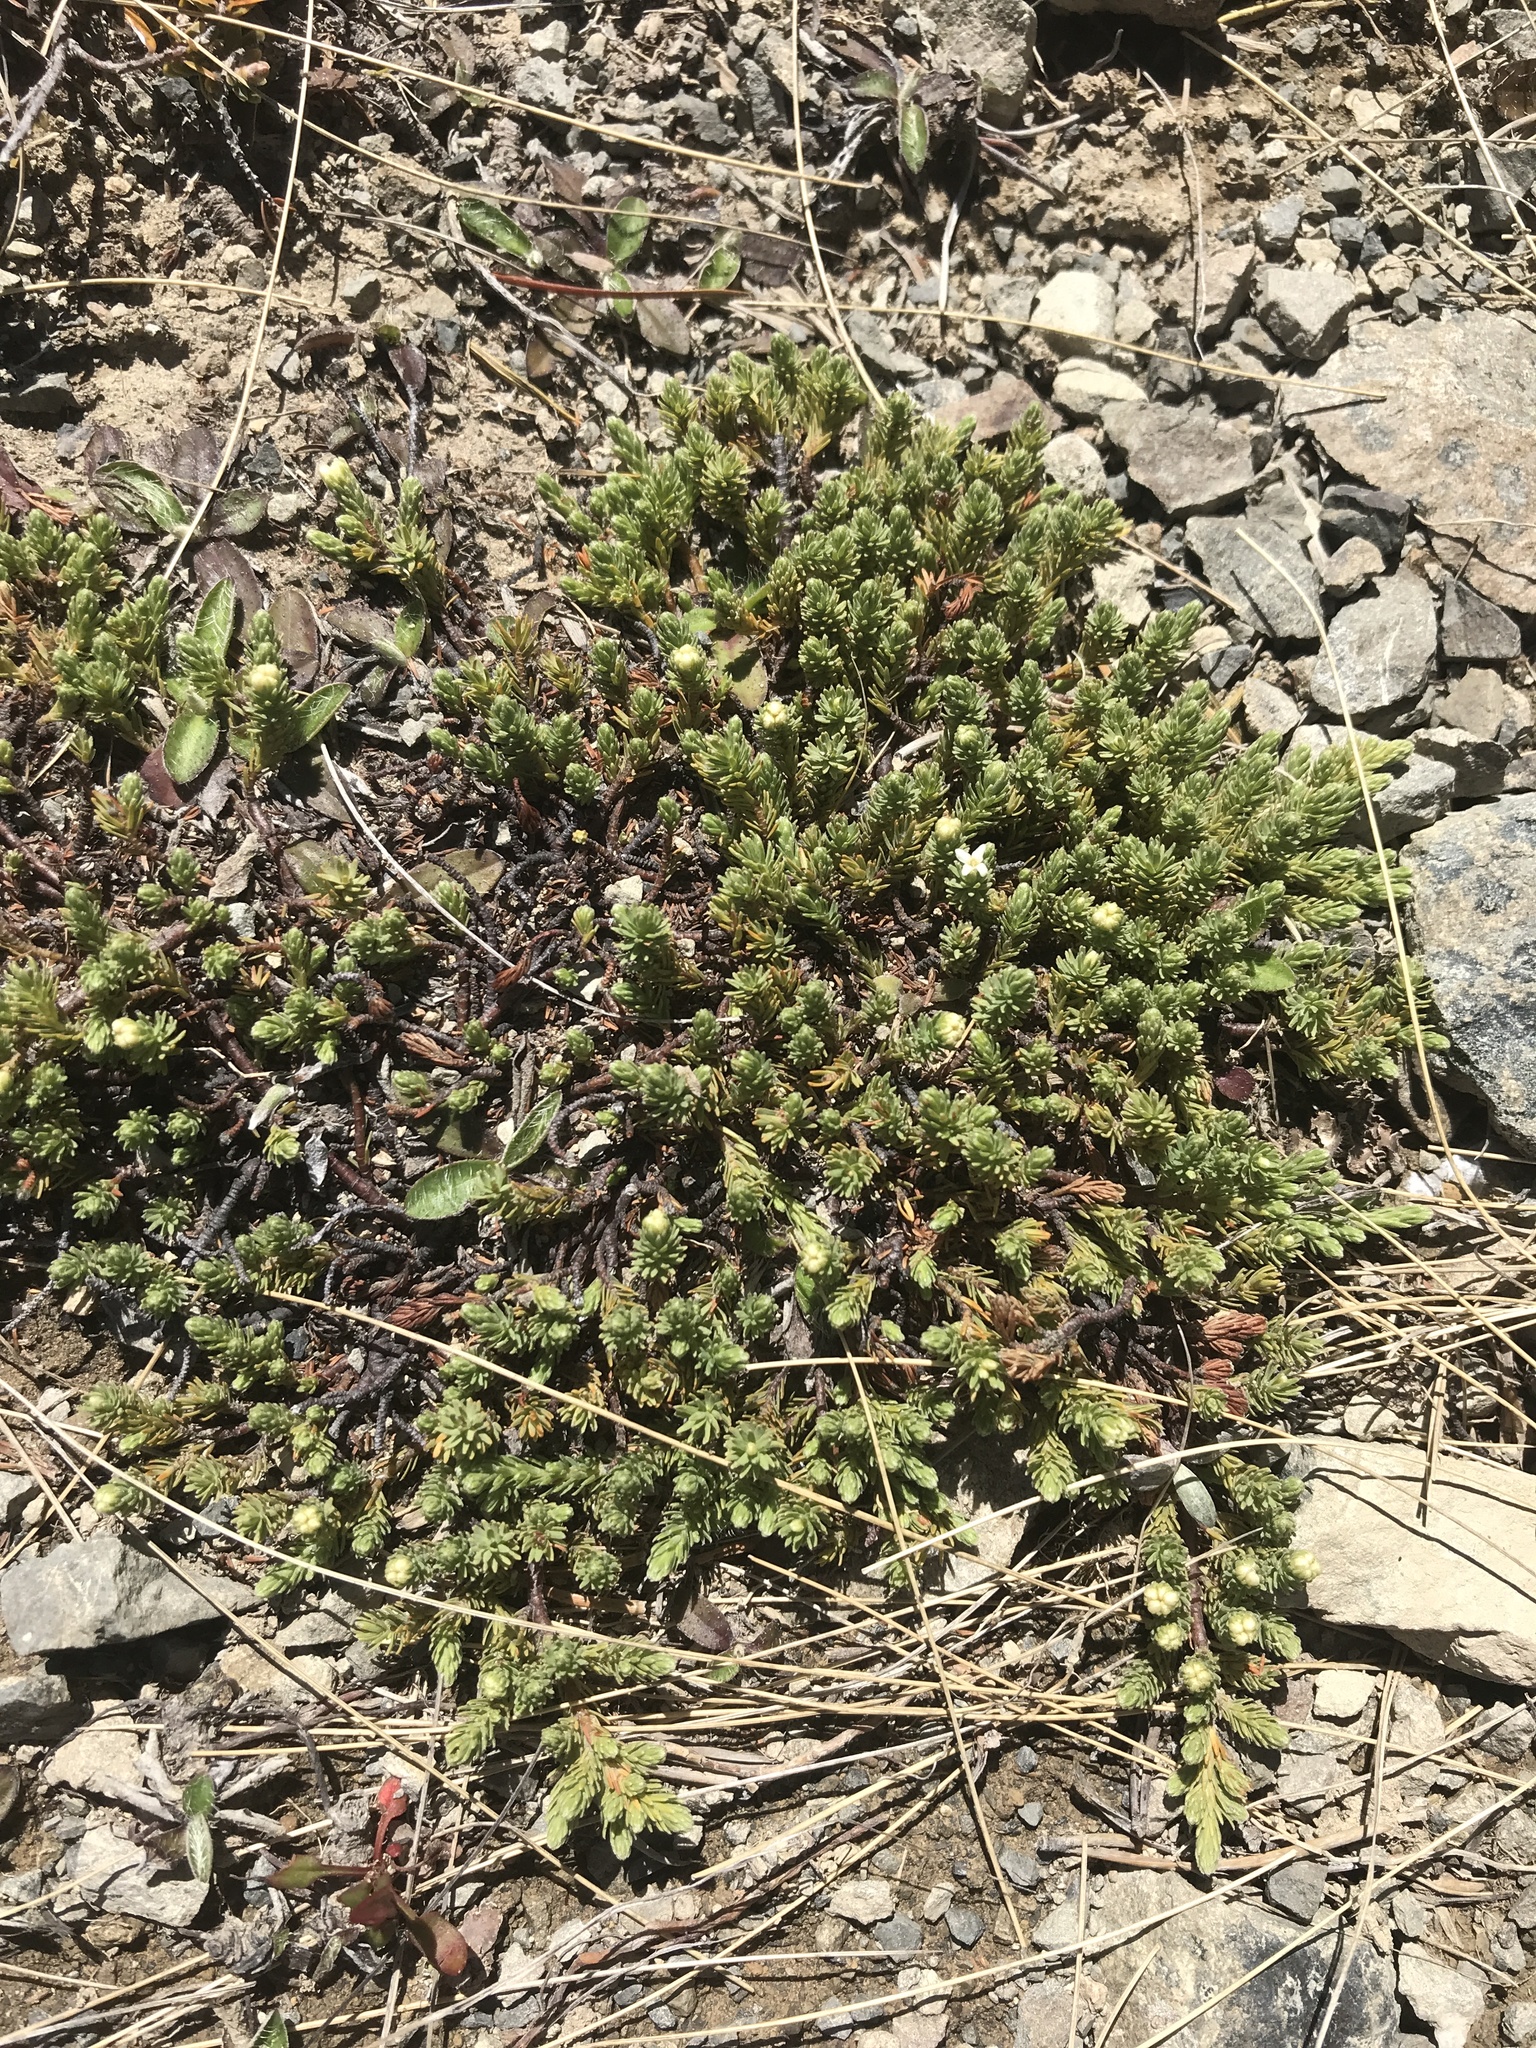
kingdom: Plantae
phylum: Tracheophyta
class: Magnoliopsida
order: Malvales
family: Thymelaeaceae
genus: Kelleria
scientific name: Kelleria dieffenbachii
